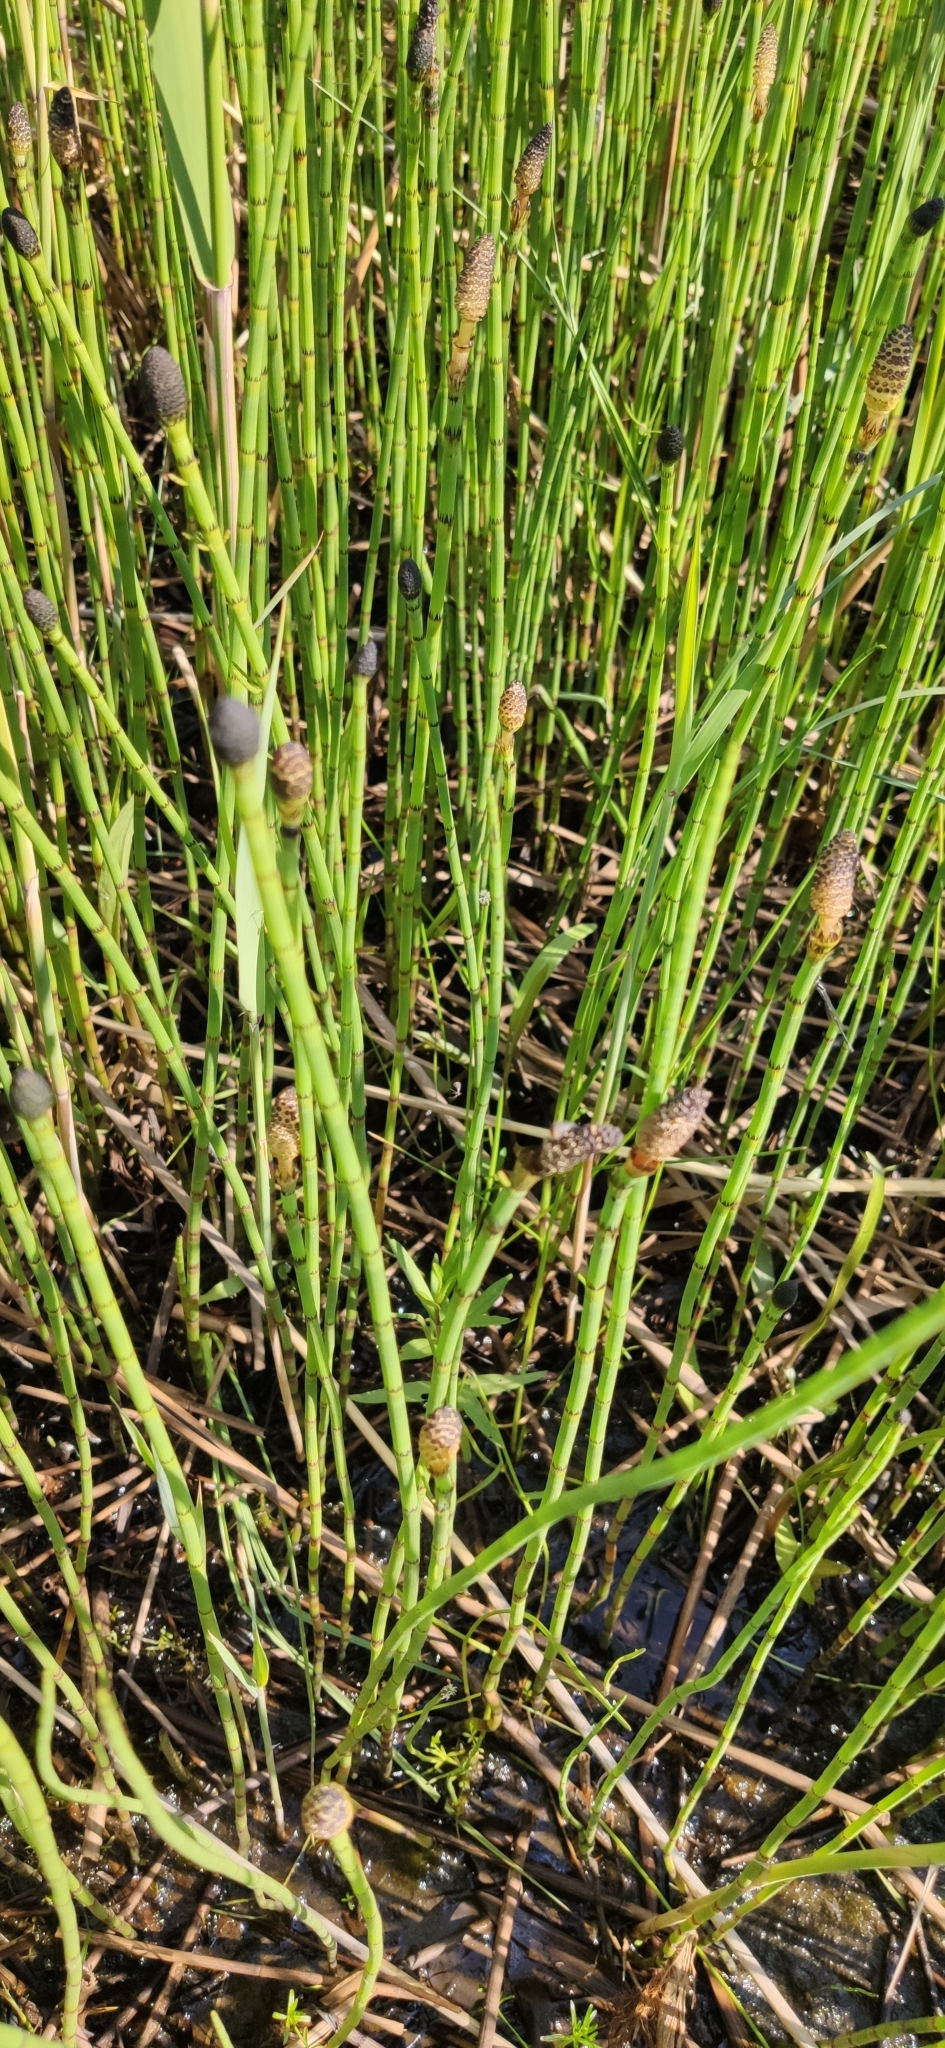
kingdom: Plantae
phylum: Tracheophyta
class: Polypodiopsida
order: Equisetales
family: Equisetaceae
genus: Equisetum
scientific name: Equisetum fluviatile
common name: Water horsetail
